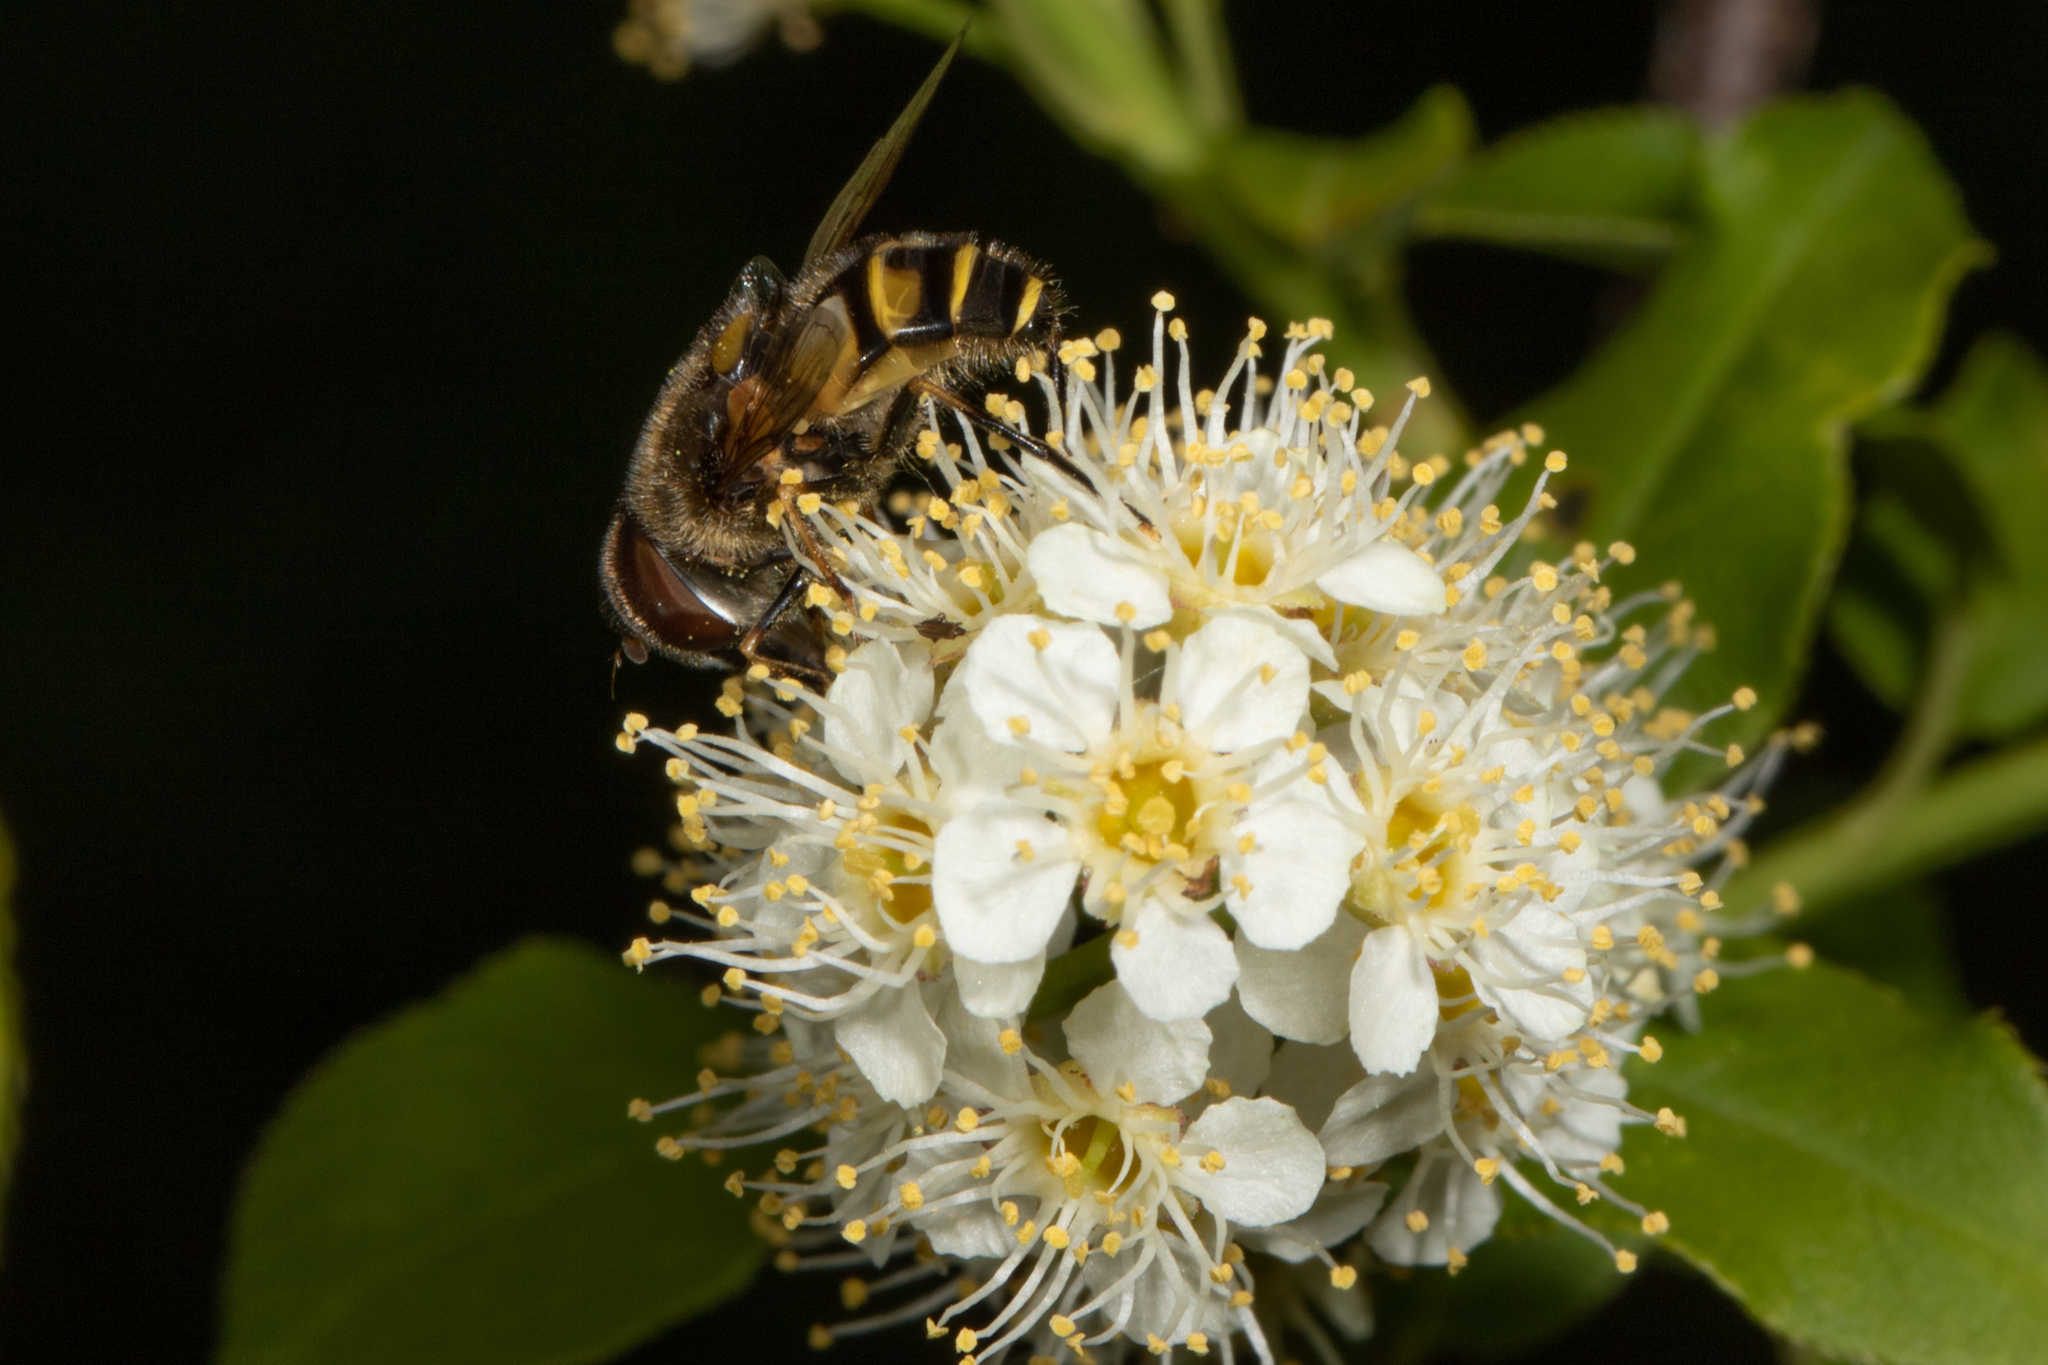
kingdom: Animalia
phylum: Arthropoda
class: Insecta
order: Diptera
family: Syrphidae
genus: Eristalis
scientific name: Eristalis transversa
